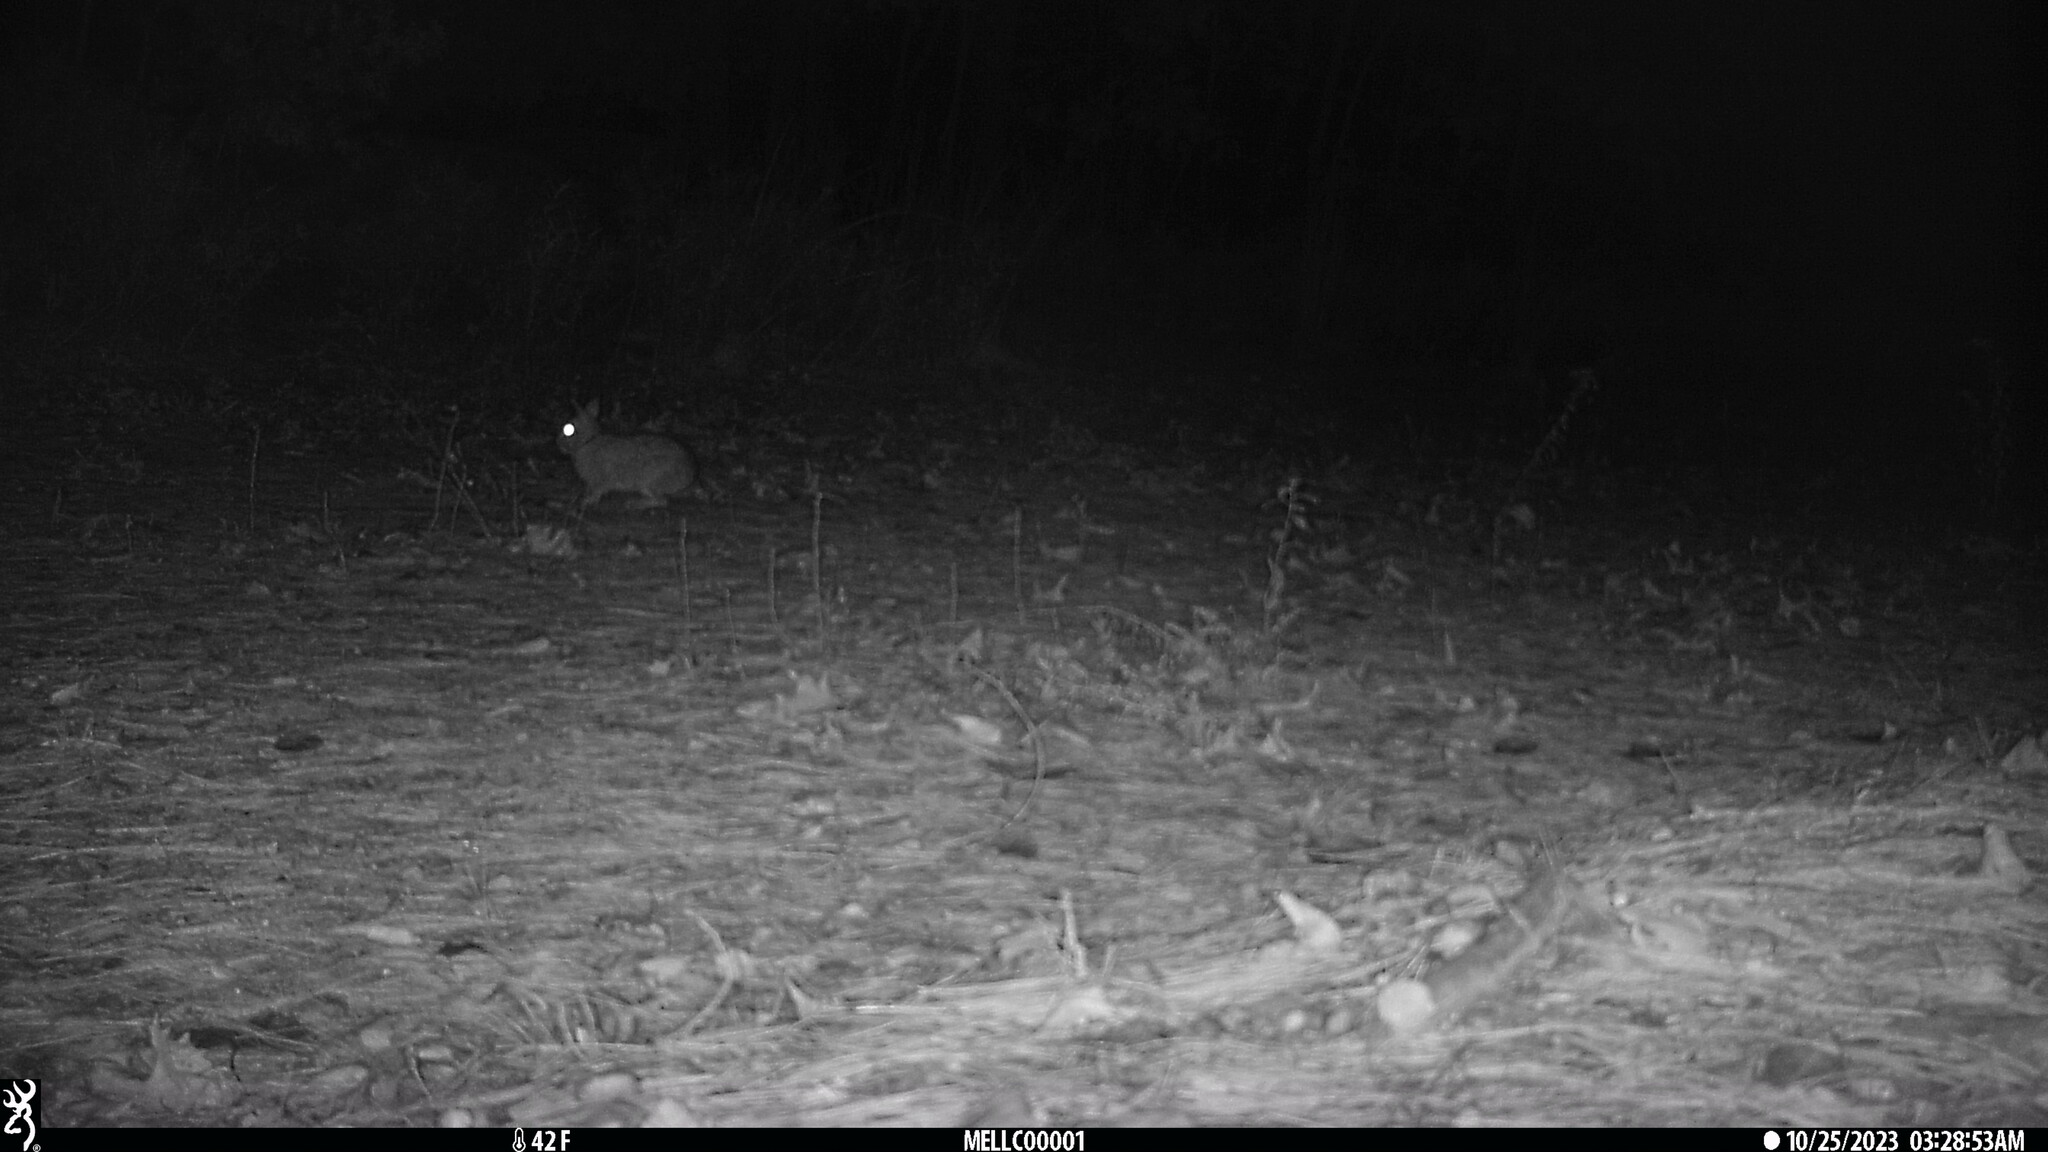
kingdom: Animalia
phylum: Chordata
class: Mammalia
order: Lagomorpha
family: Leporidae
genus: Sylvilagus
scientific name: Sylvilagus floridanus
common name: Eastern cottontail
